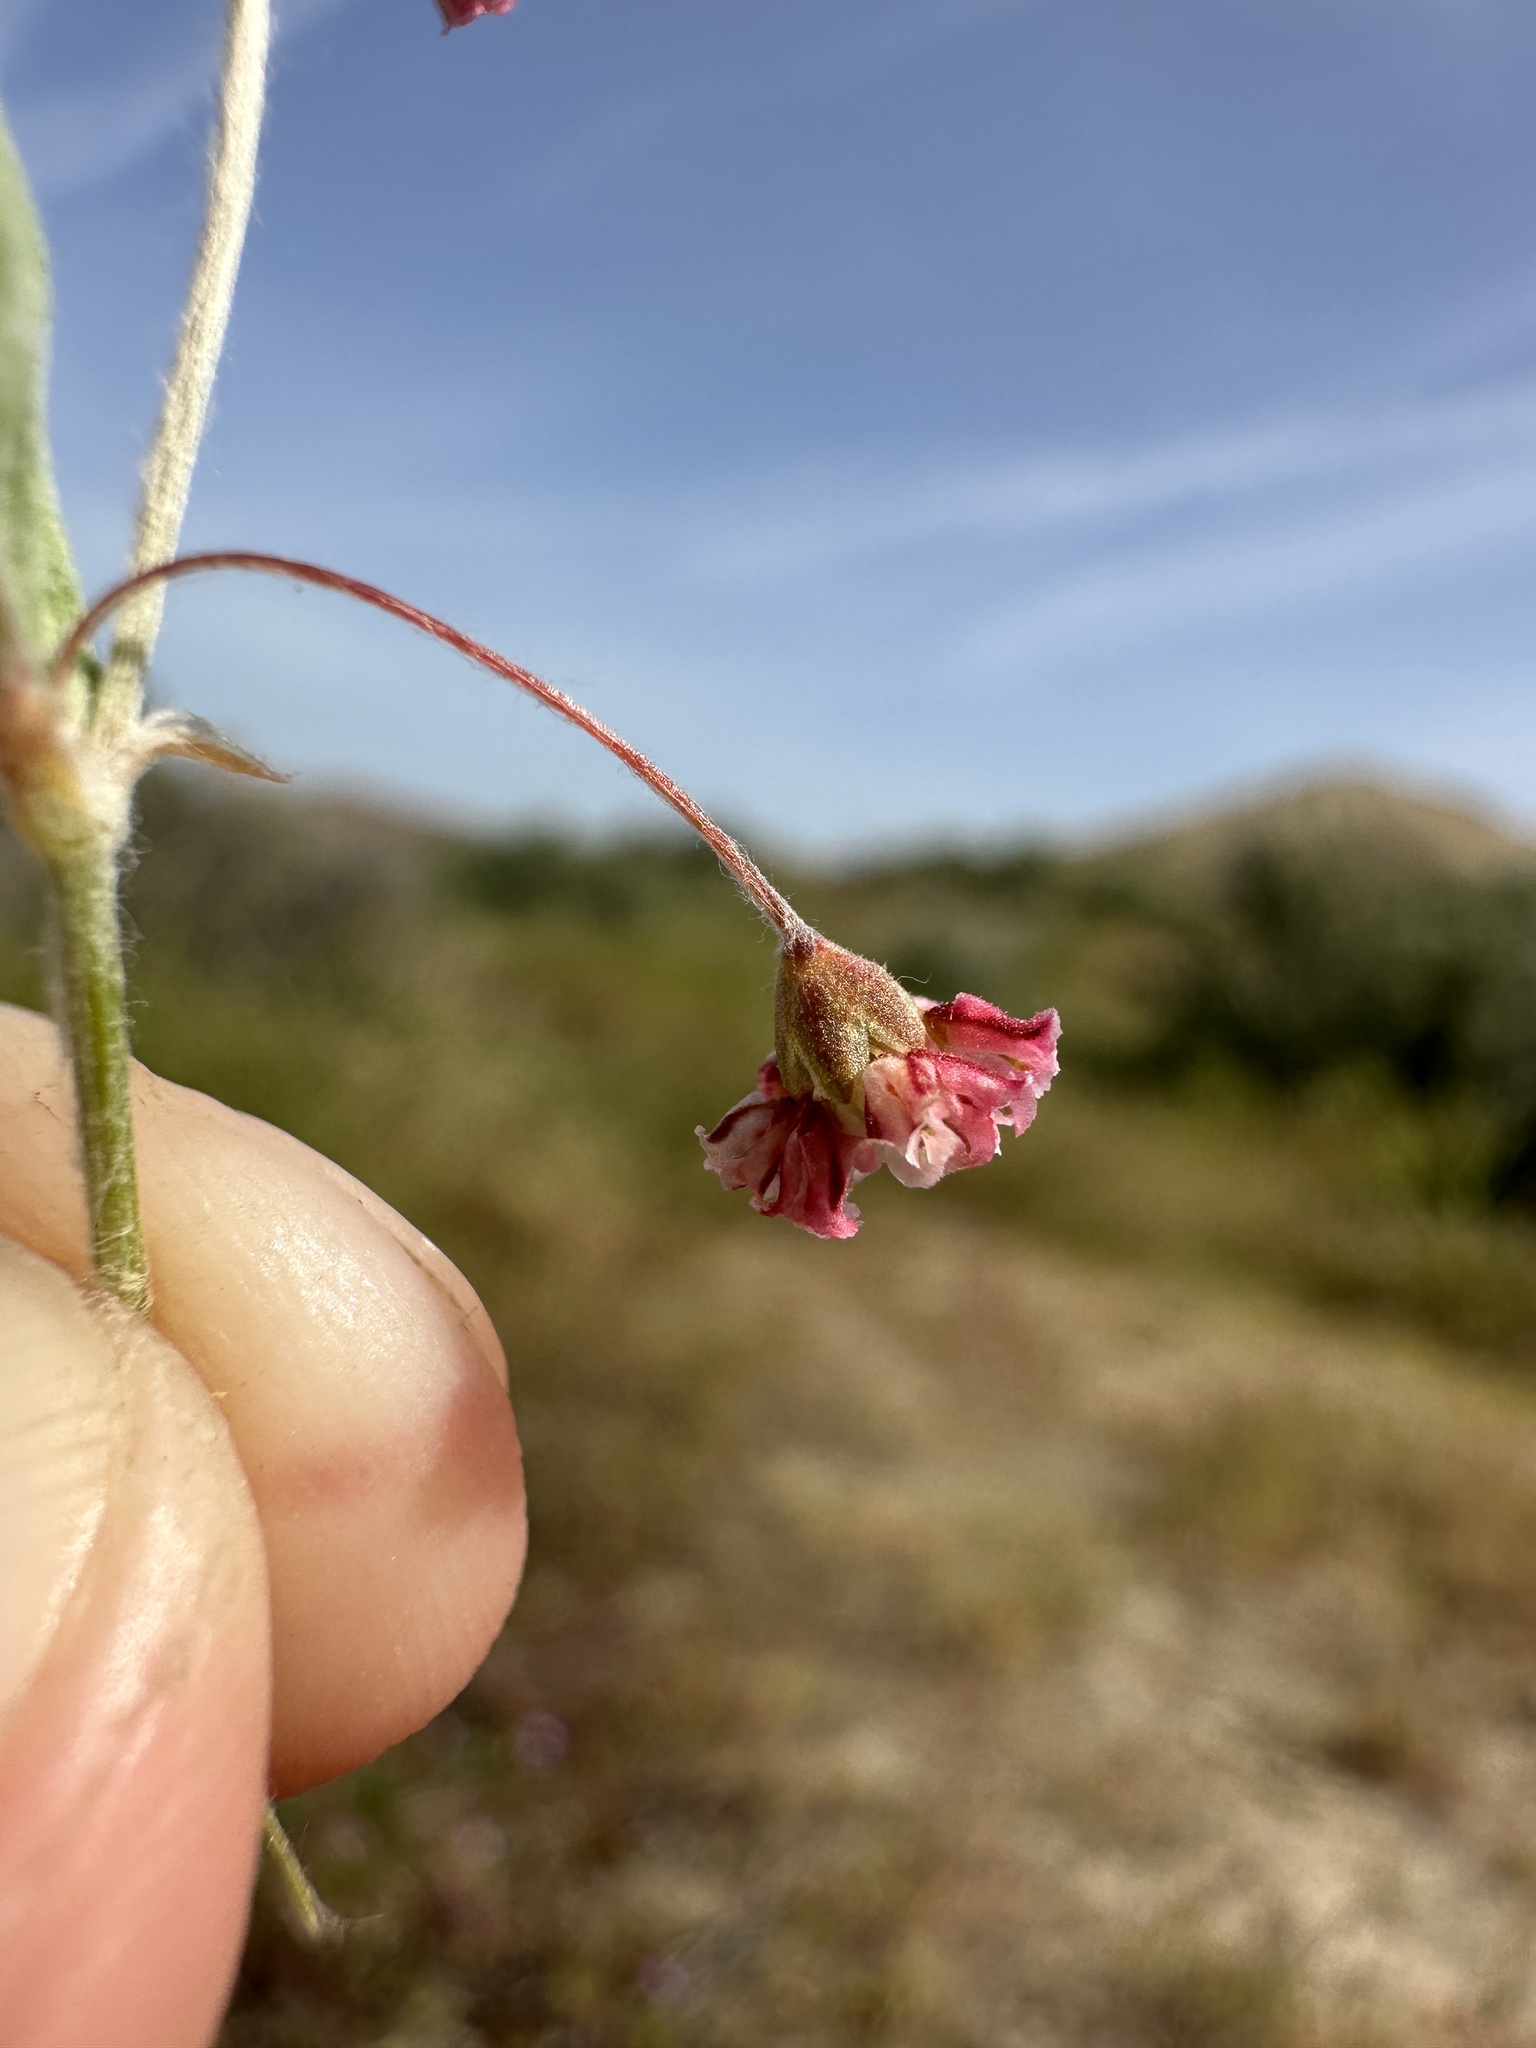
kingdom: Plantae
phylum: Tracheophyta
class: Magnoliopsida
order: Caryophyllales
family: Polygonaceae
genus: Eriogonum
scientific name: Eriogonum gracillimum
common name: Rose-and-white wild buckwheat
